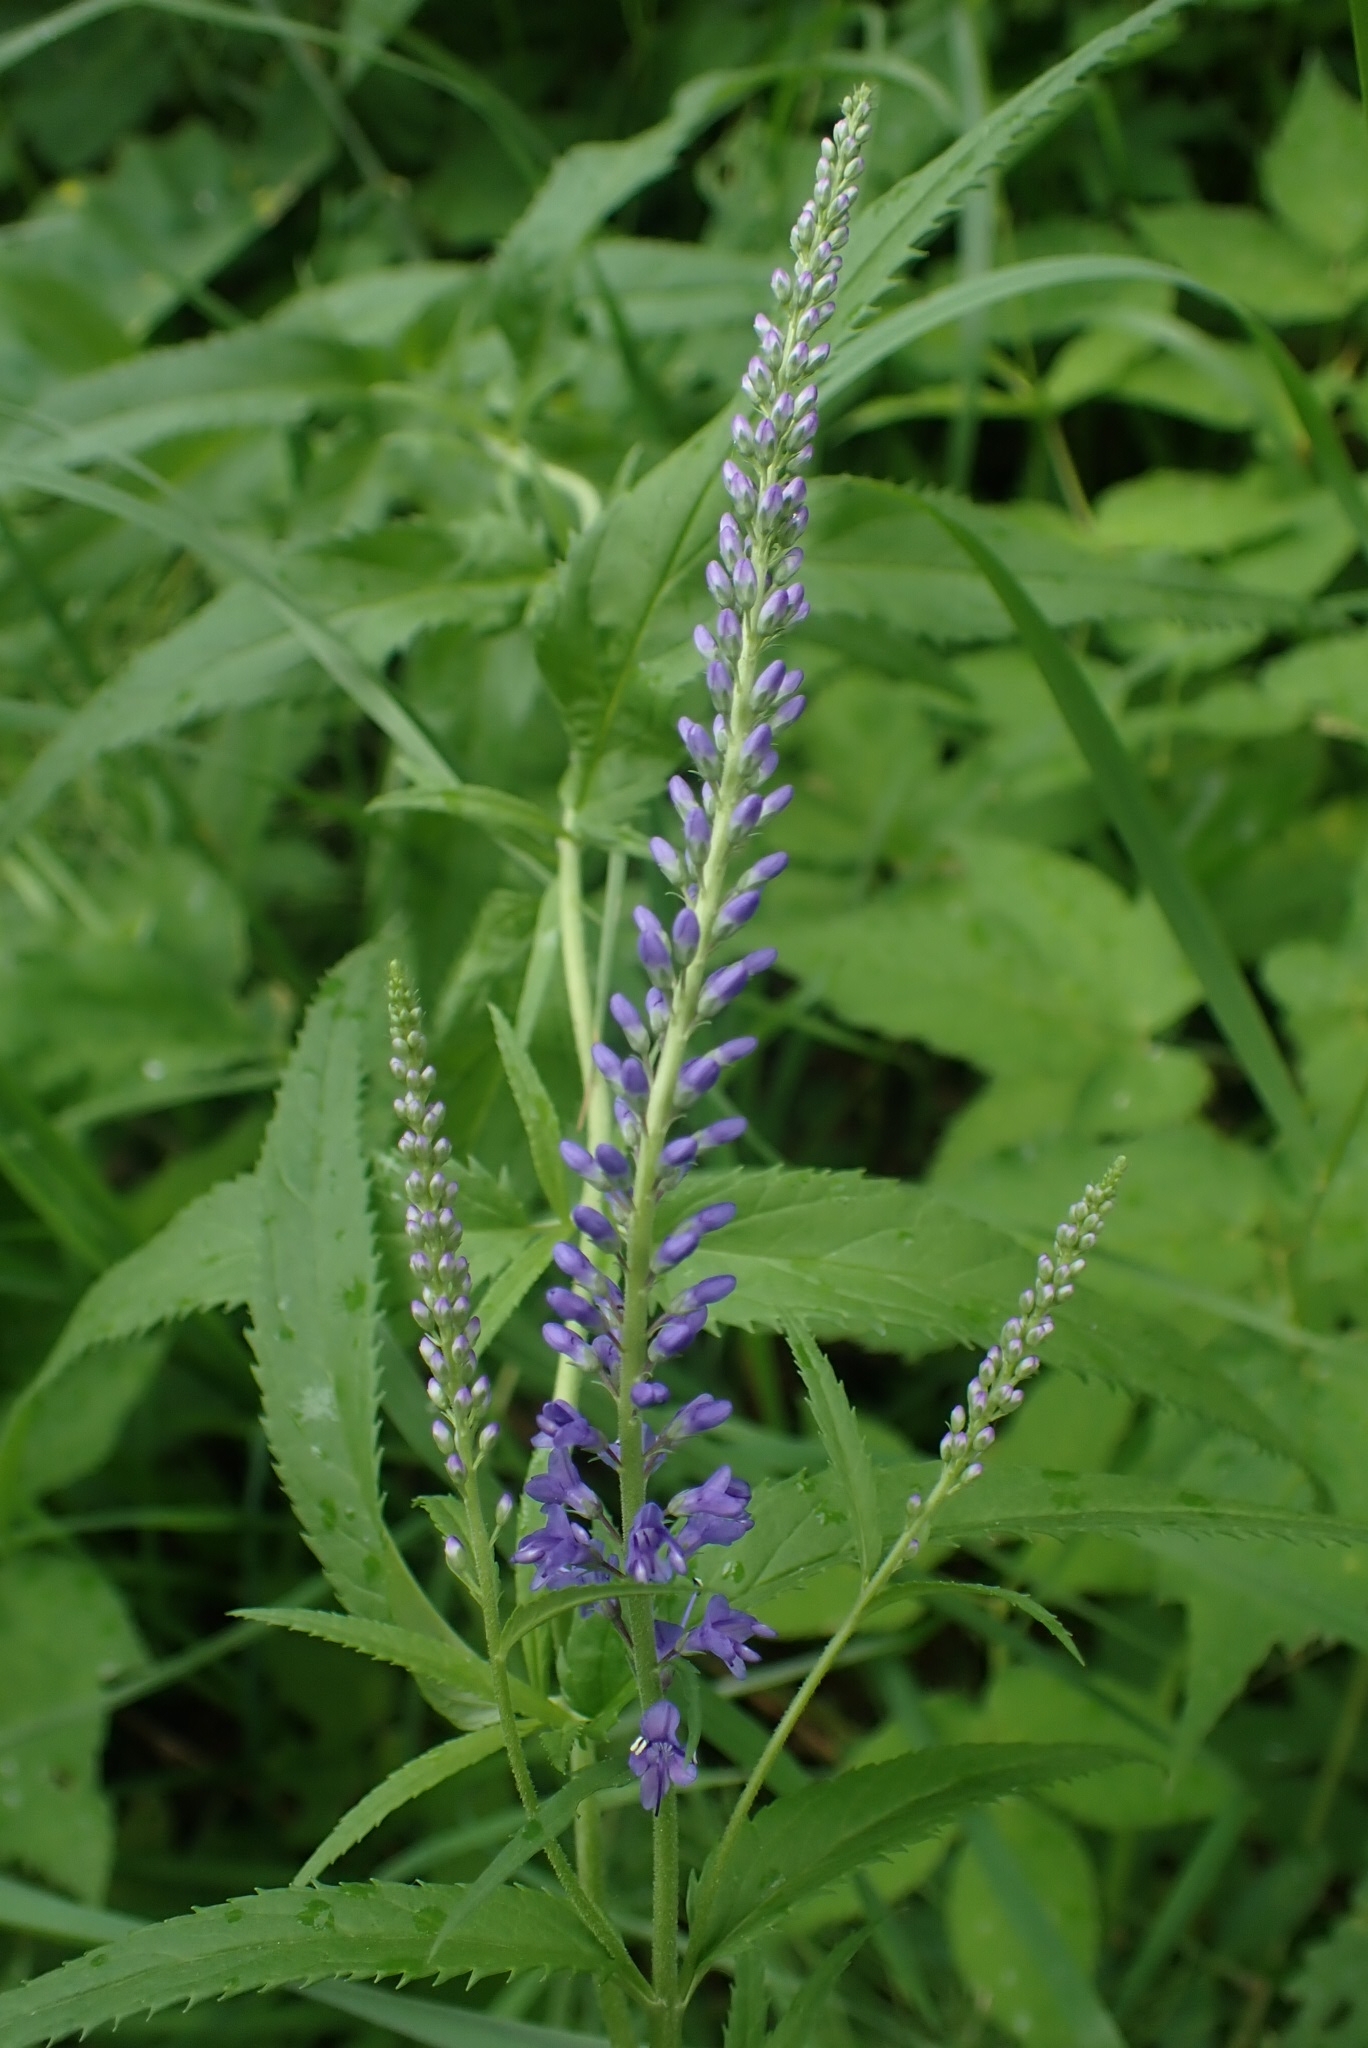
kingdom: Plantae
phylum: Tracheophyta
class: Magnoliopsida
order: Lamiales
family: Plantaginaceae
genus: Veronica
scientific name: Veronica longifolia
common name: Garden speedwell
